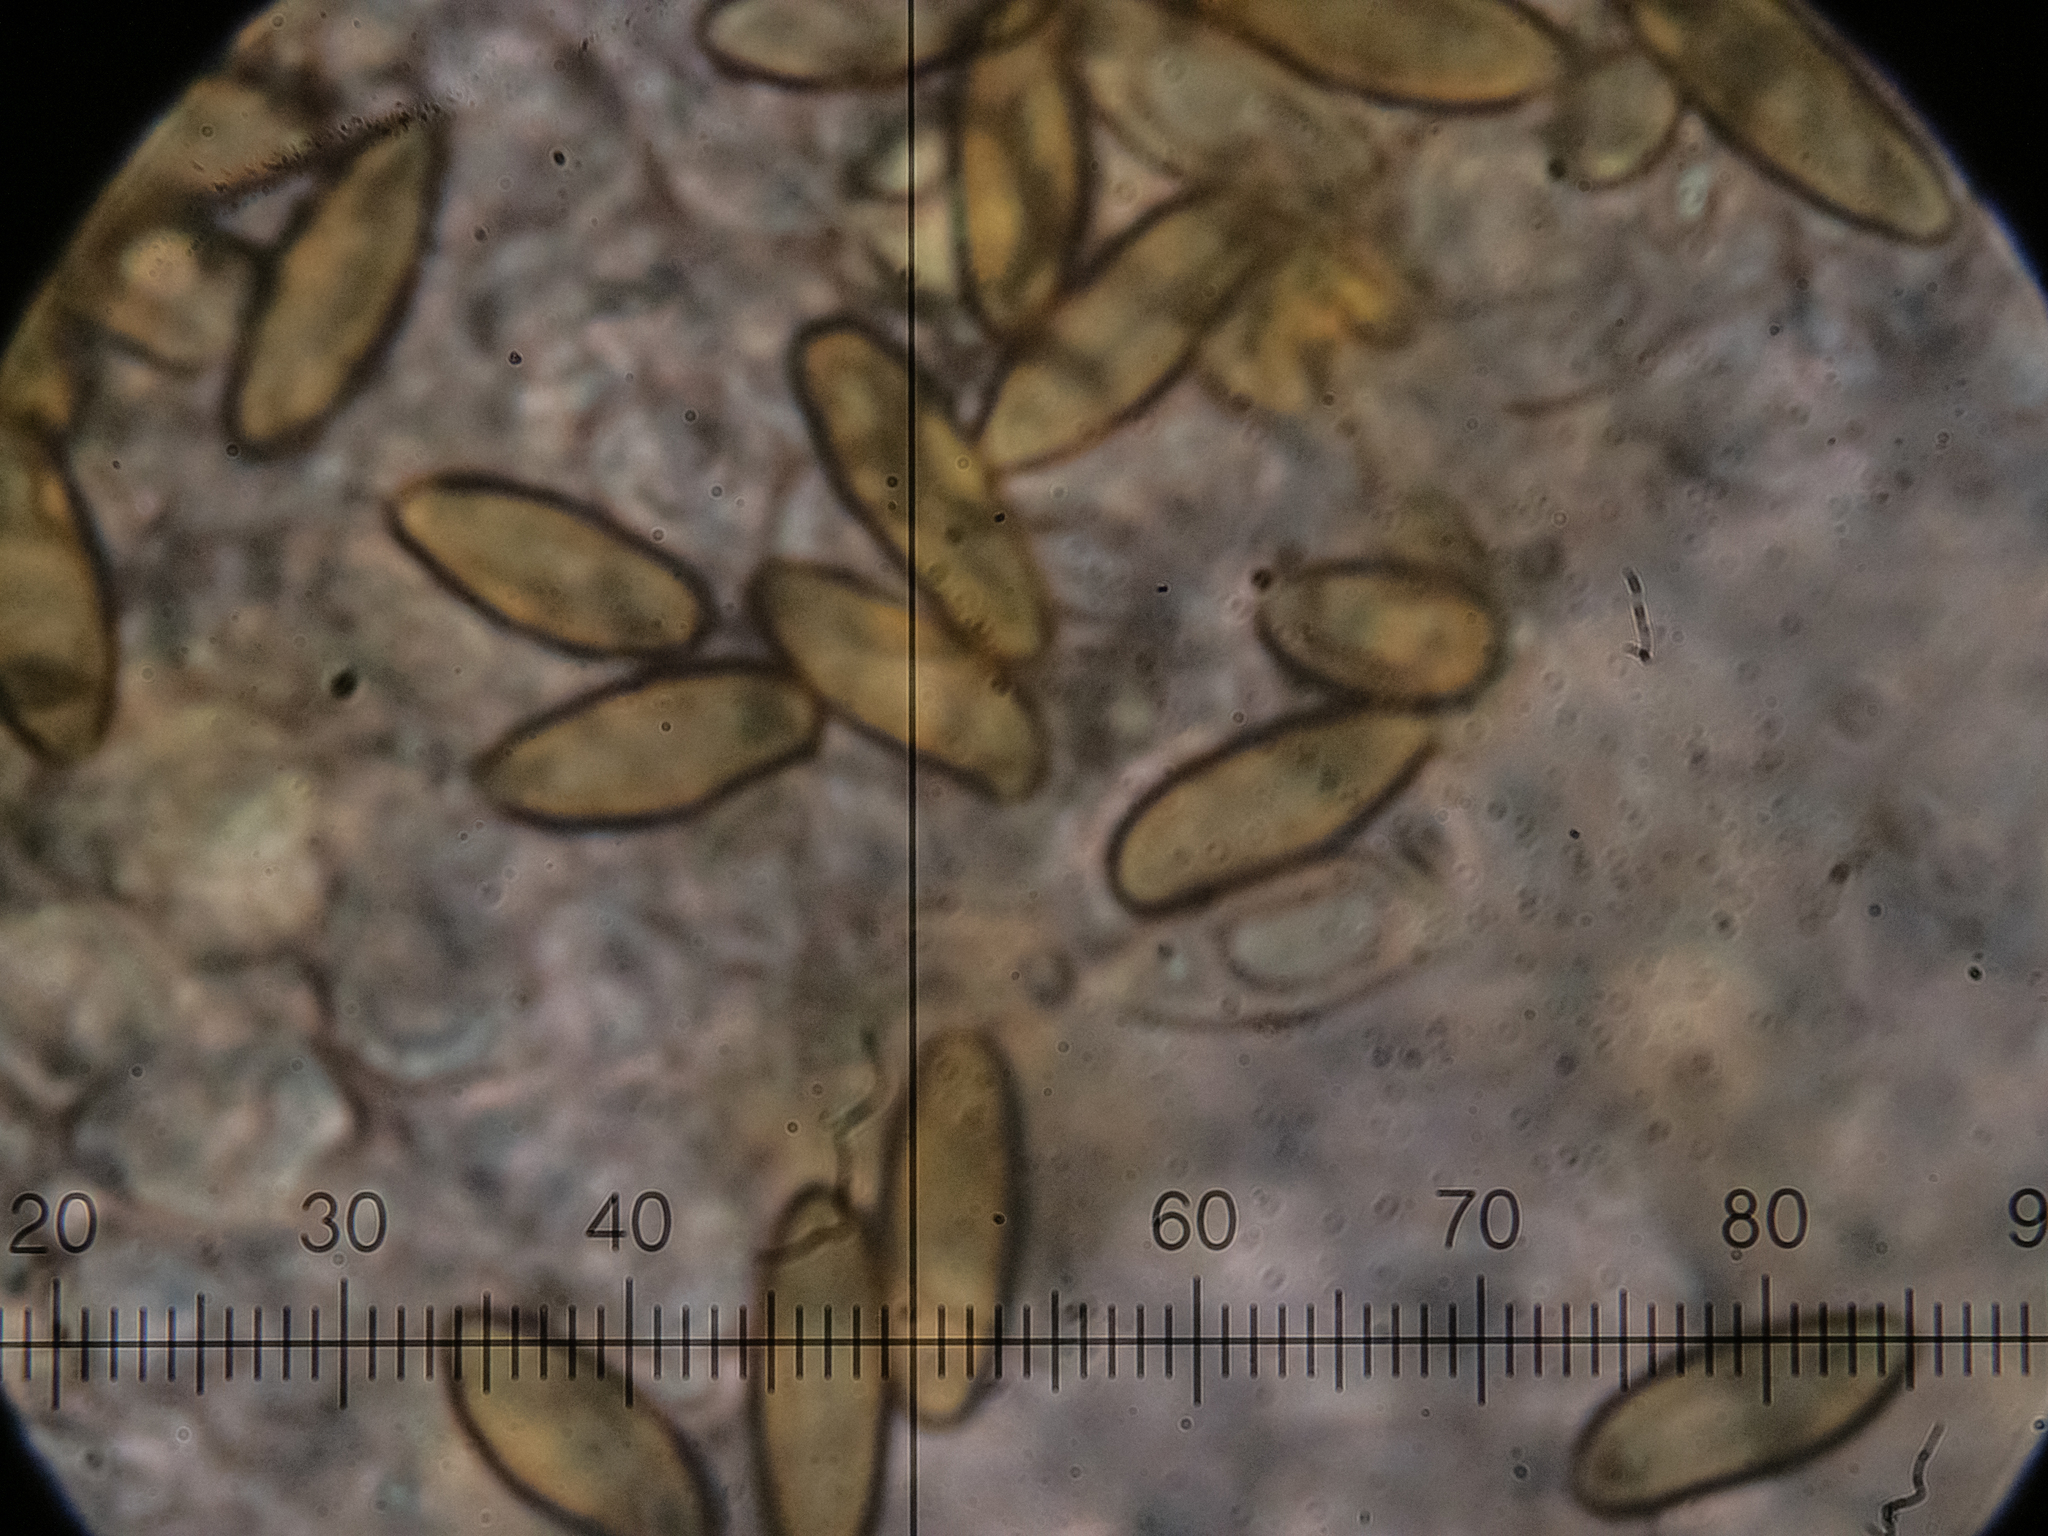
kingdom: Fungi
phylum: Basidiomycota
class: Agaricomycetes
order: Boletales
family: Boletaceae
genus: Suillellus
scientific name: Suillellus mendax
